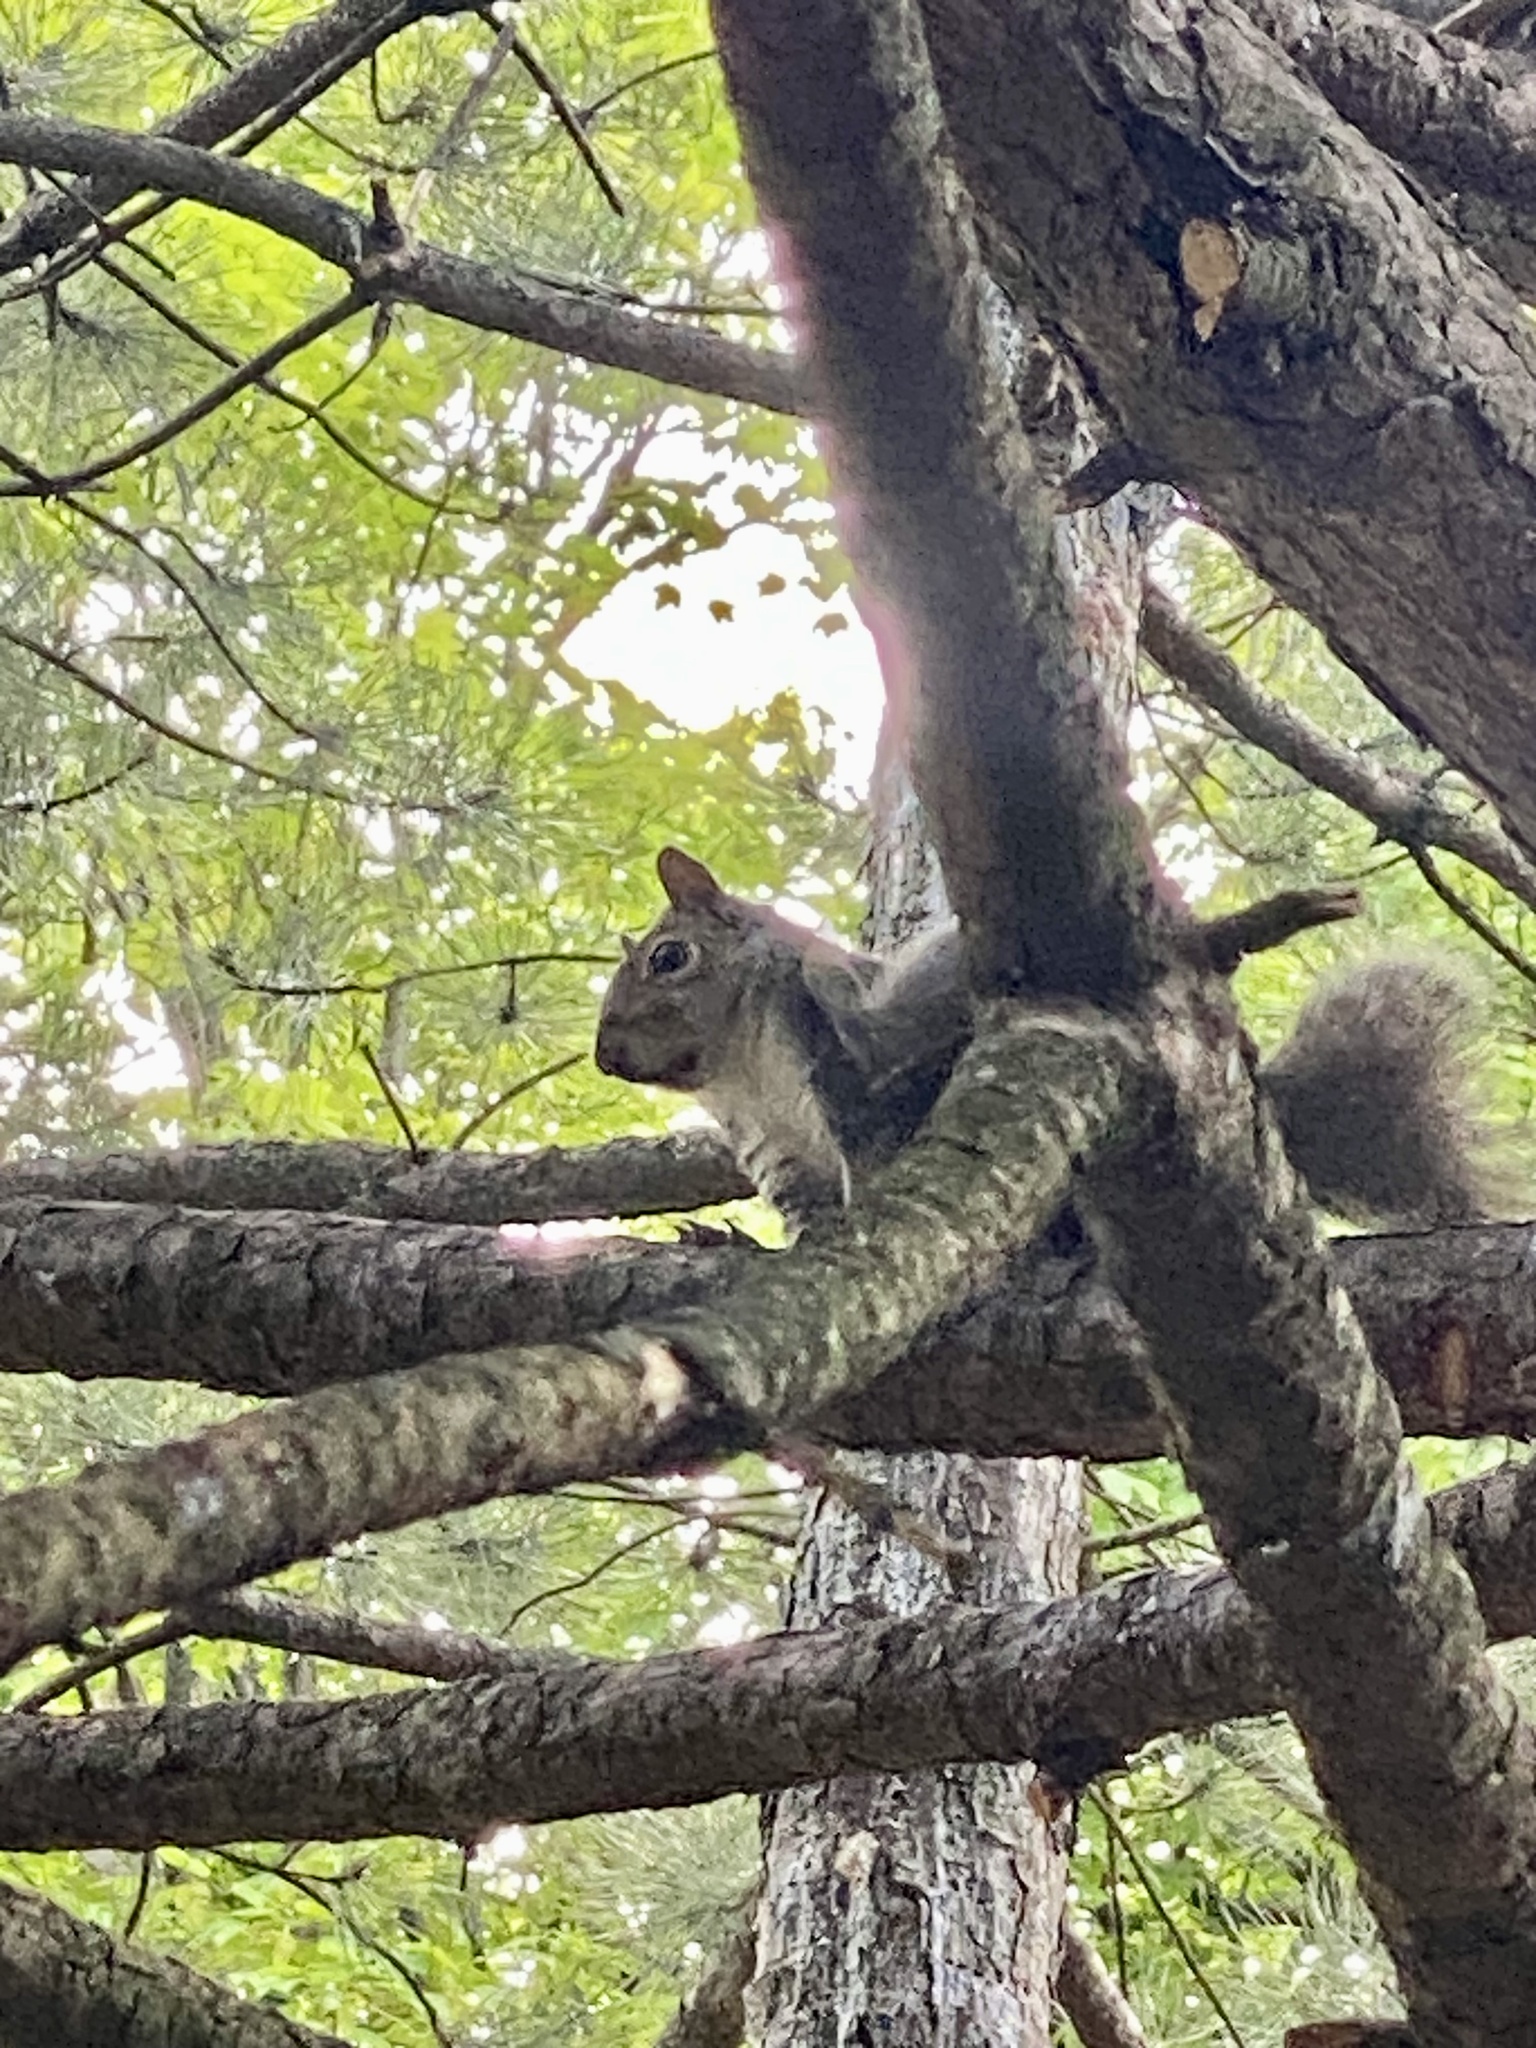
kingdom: Animalia
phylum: Chordata
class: Mammalia
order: Rodentia
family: Sciuridae
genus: Sciurus
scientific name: Sciurus carolinensis
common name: Eastern gray squirrel
